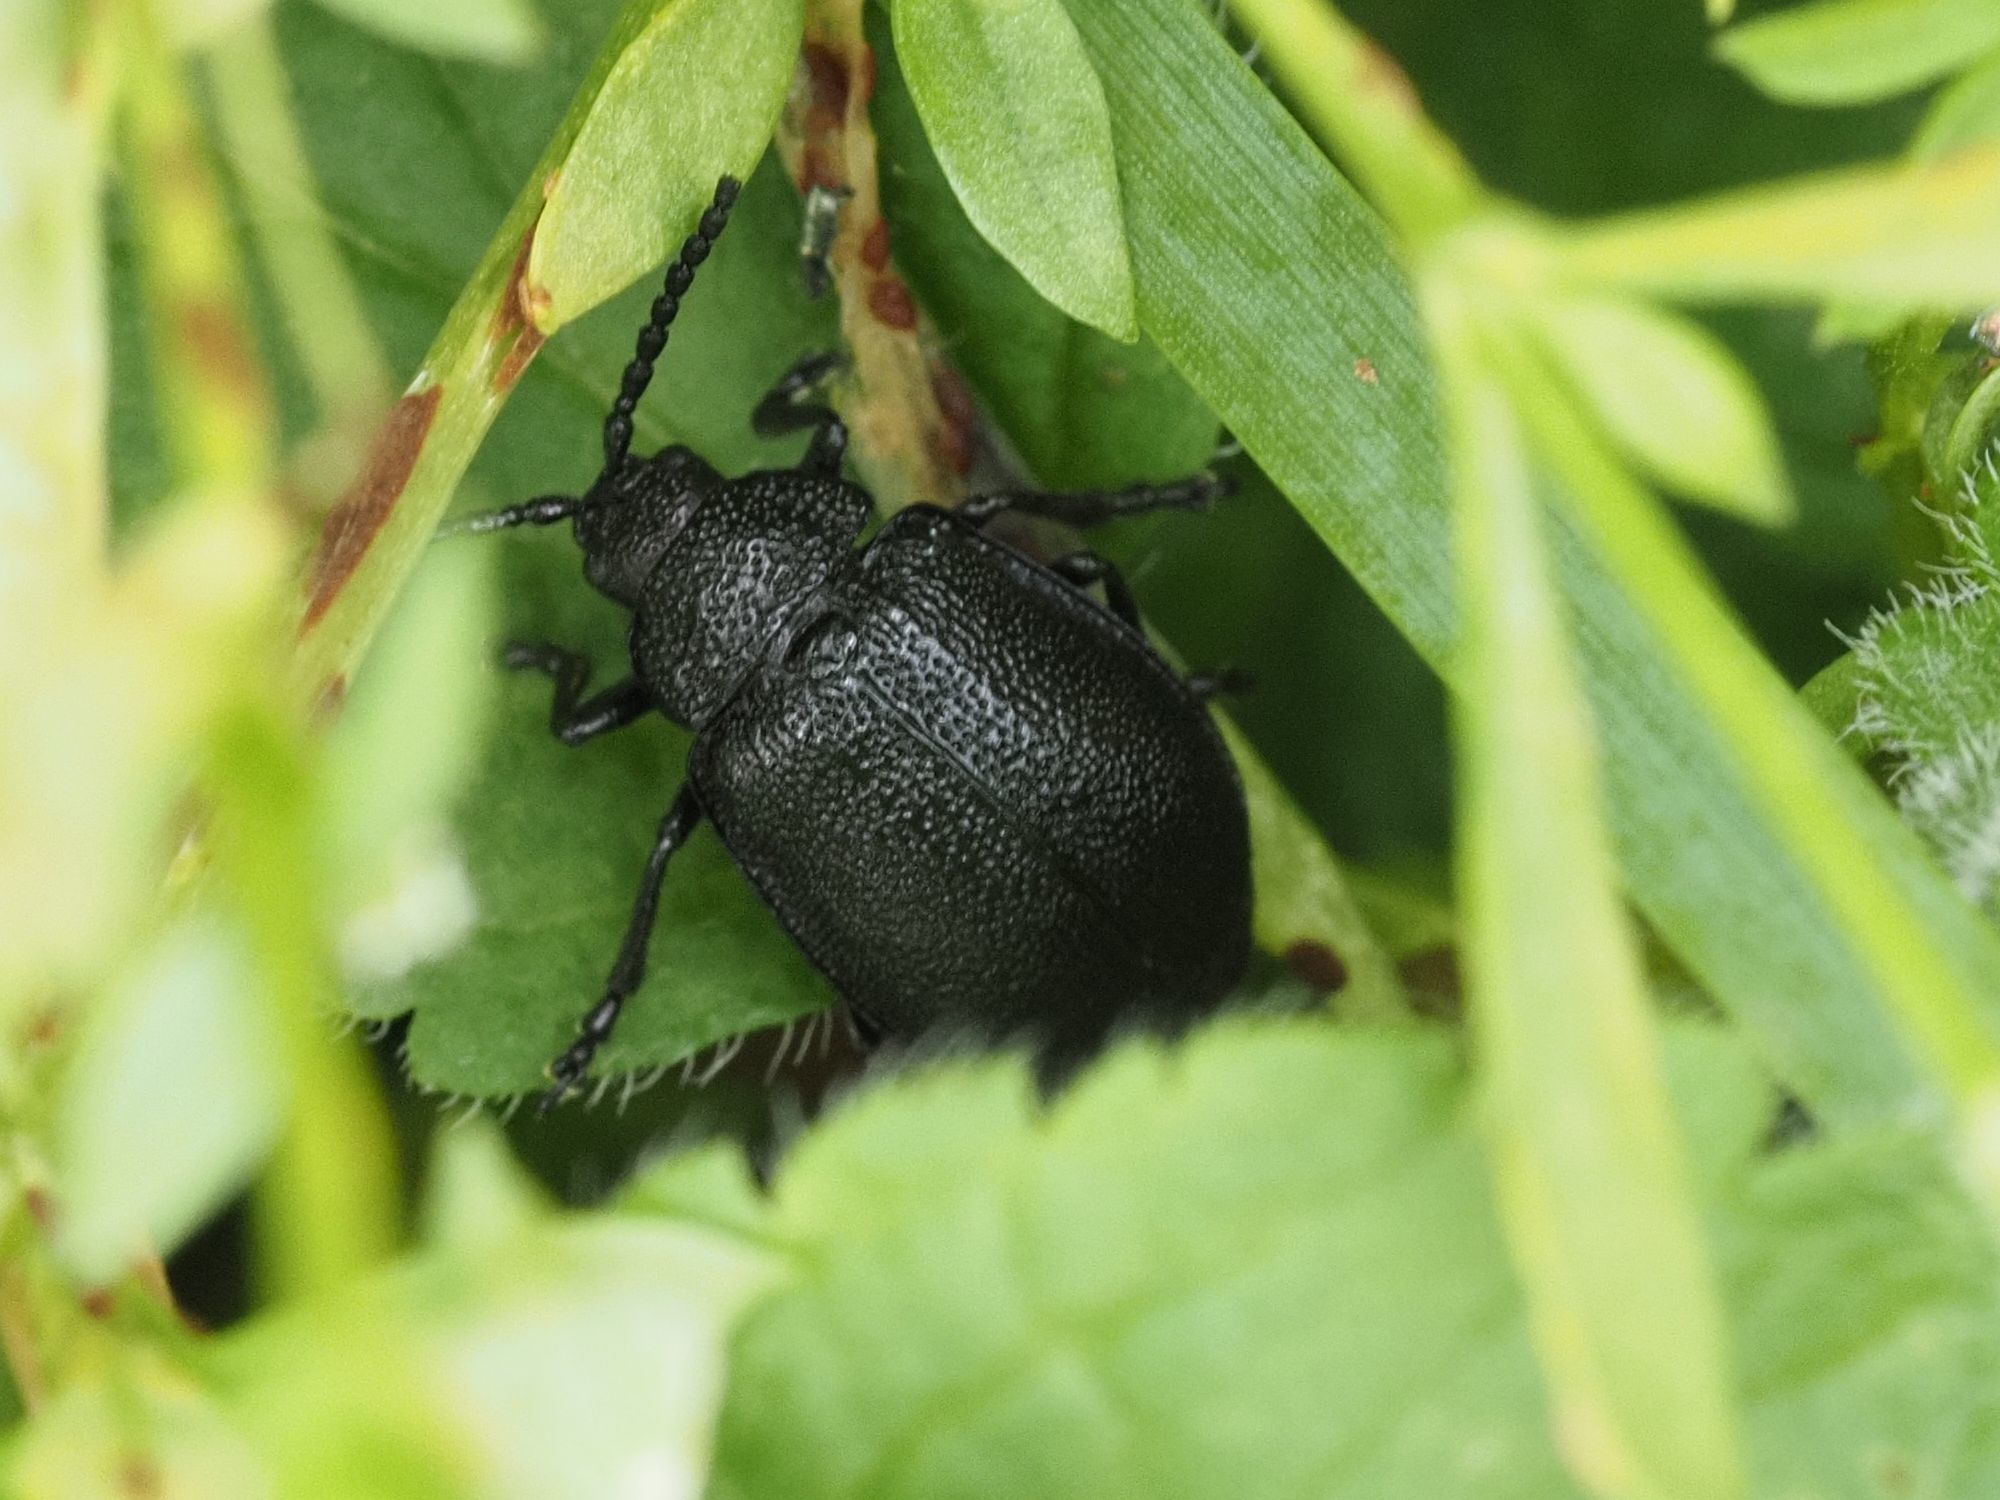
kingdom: Animalia
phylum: Arthropoda
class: Insecta
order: Coleoptera
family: Chrysomelidae
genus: Galeruca
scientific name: Galeruca tanaceti
